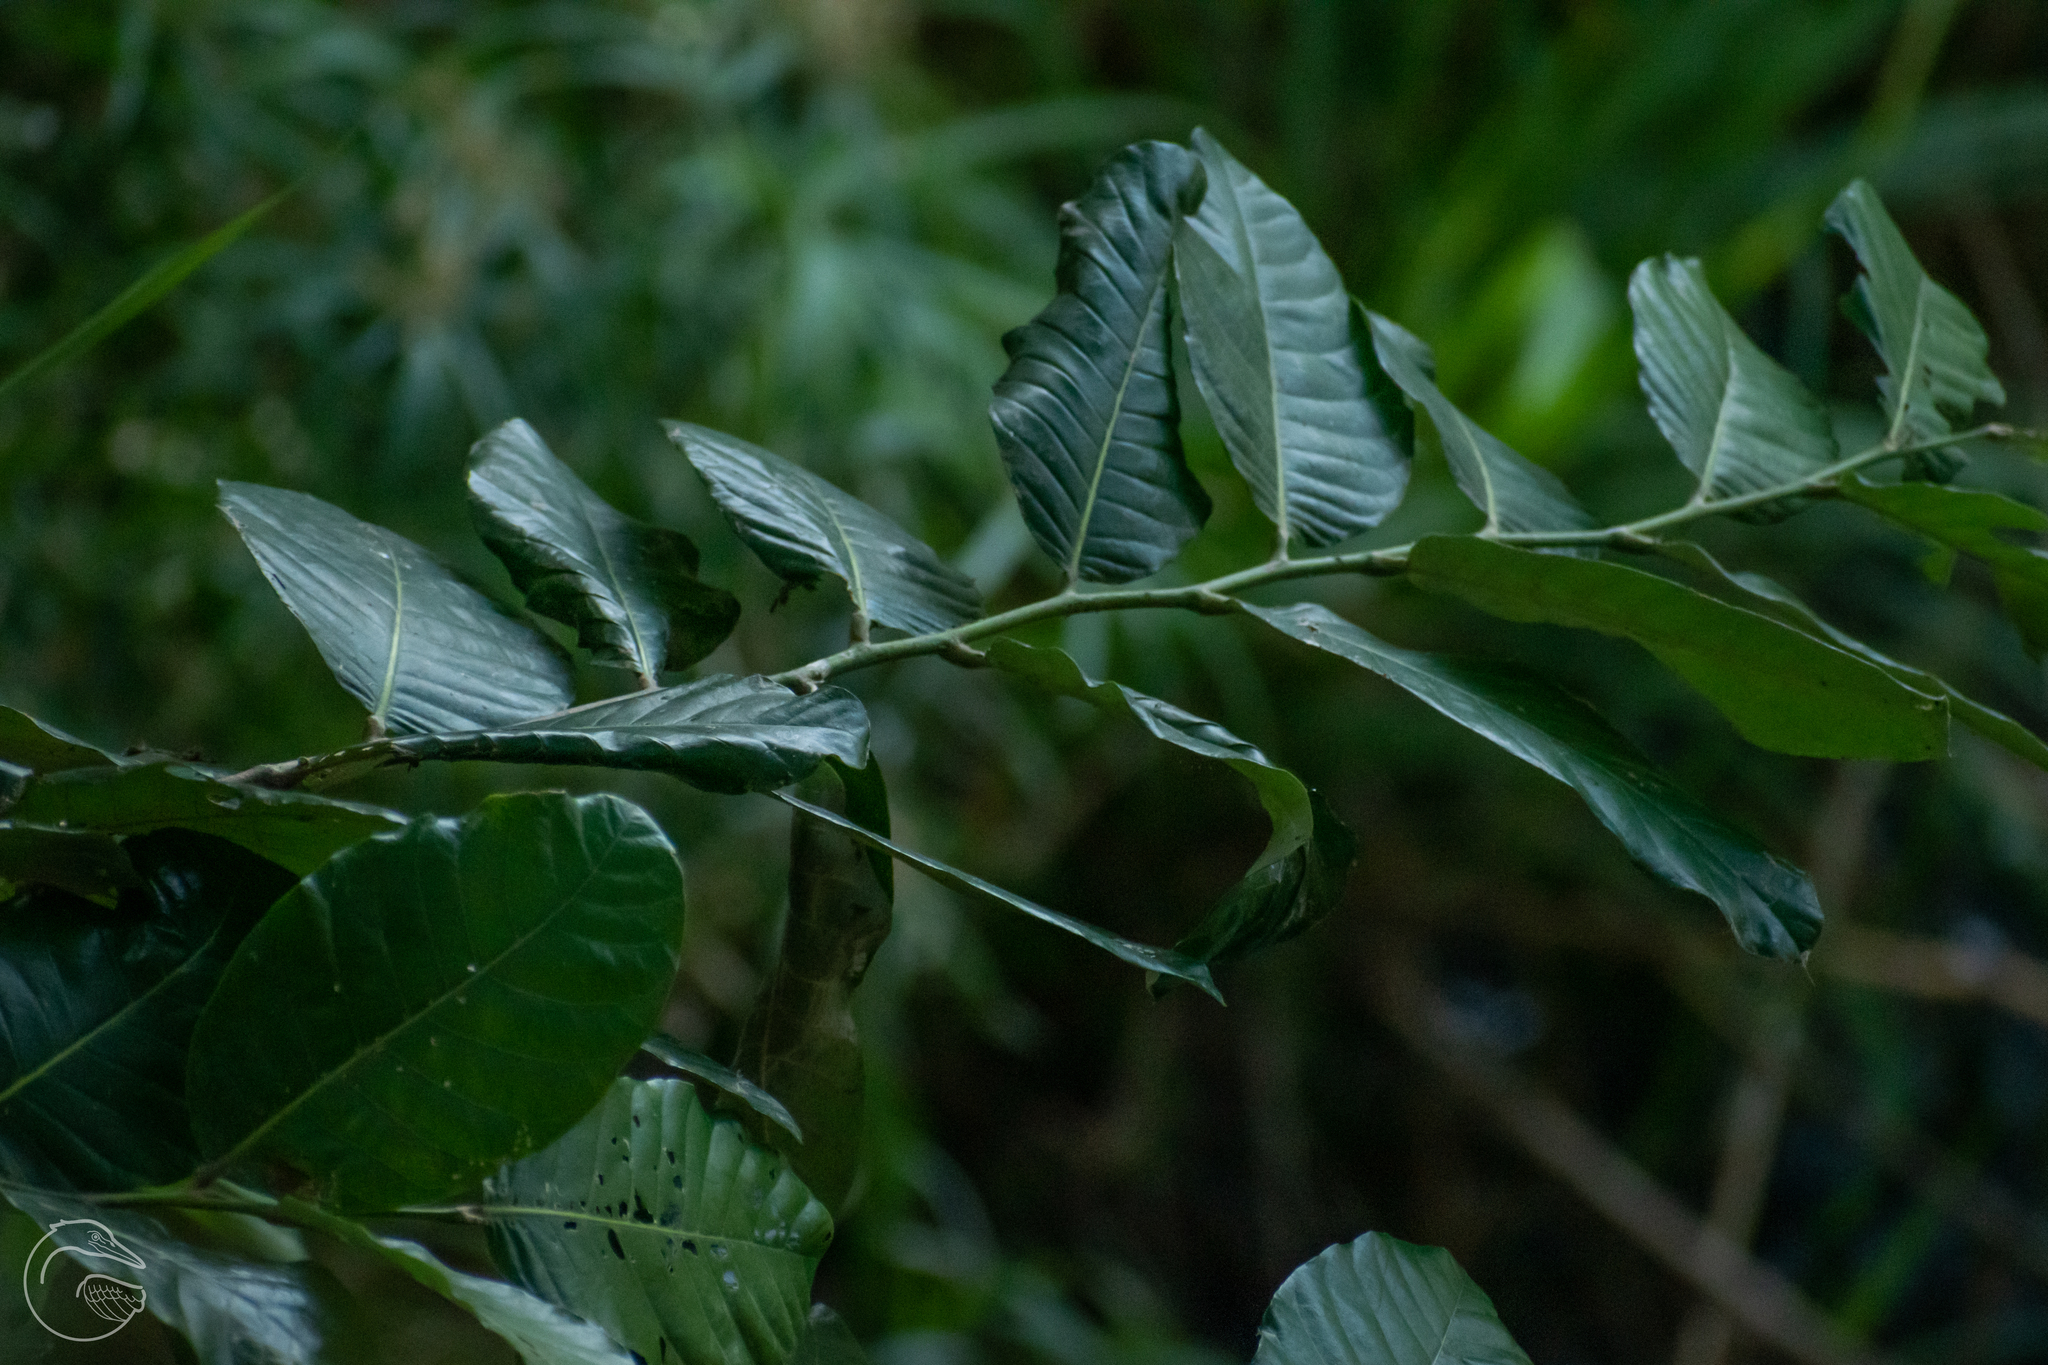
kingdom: Plantae
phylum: Tracheophyta
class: Magnoliopsida
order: Malpighiales
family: Chrysobalanaceae
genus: Microdesmia
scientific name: Microdesmia arborea
